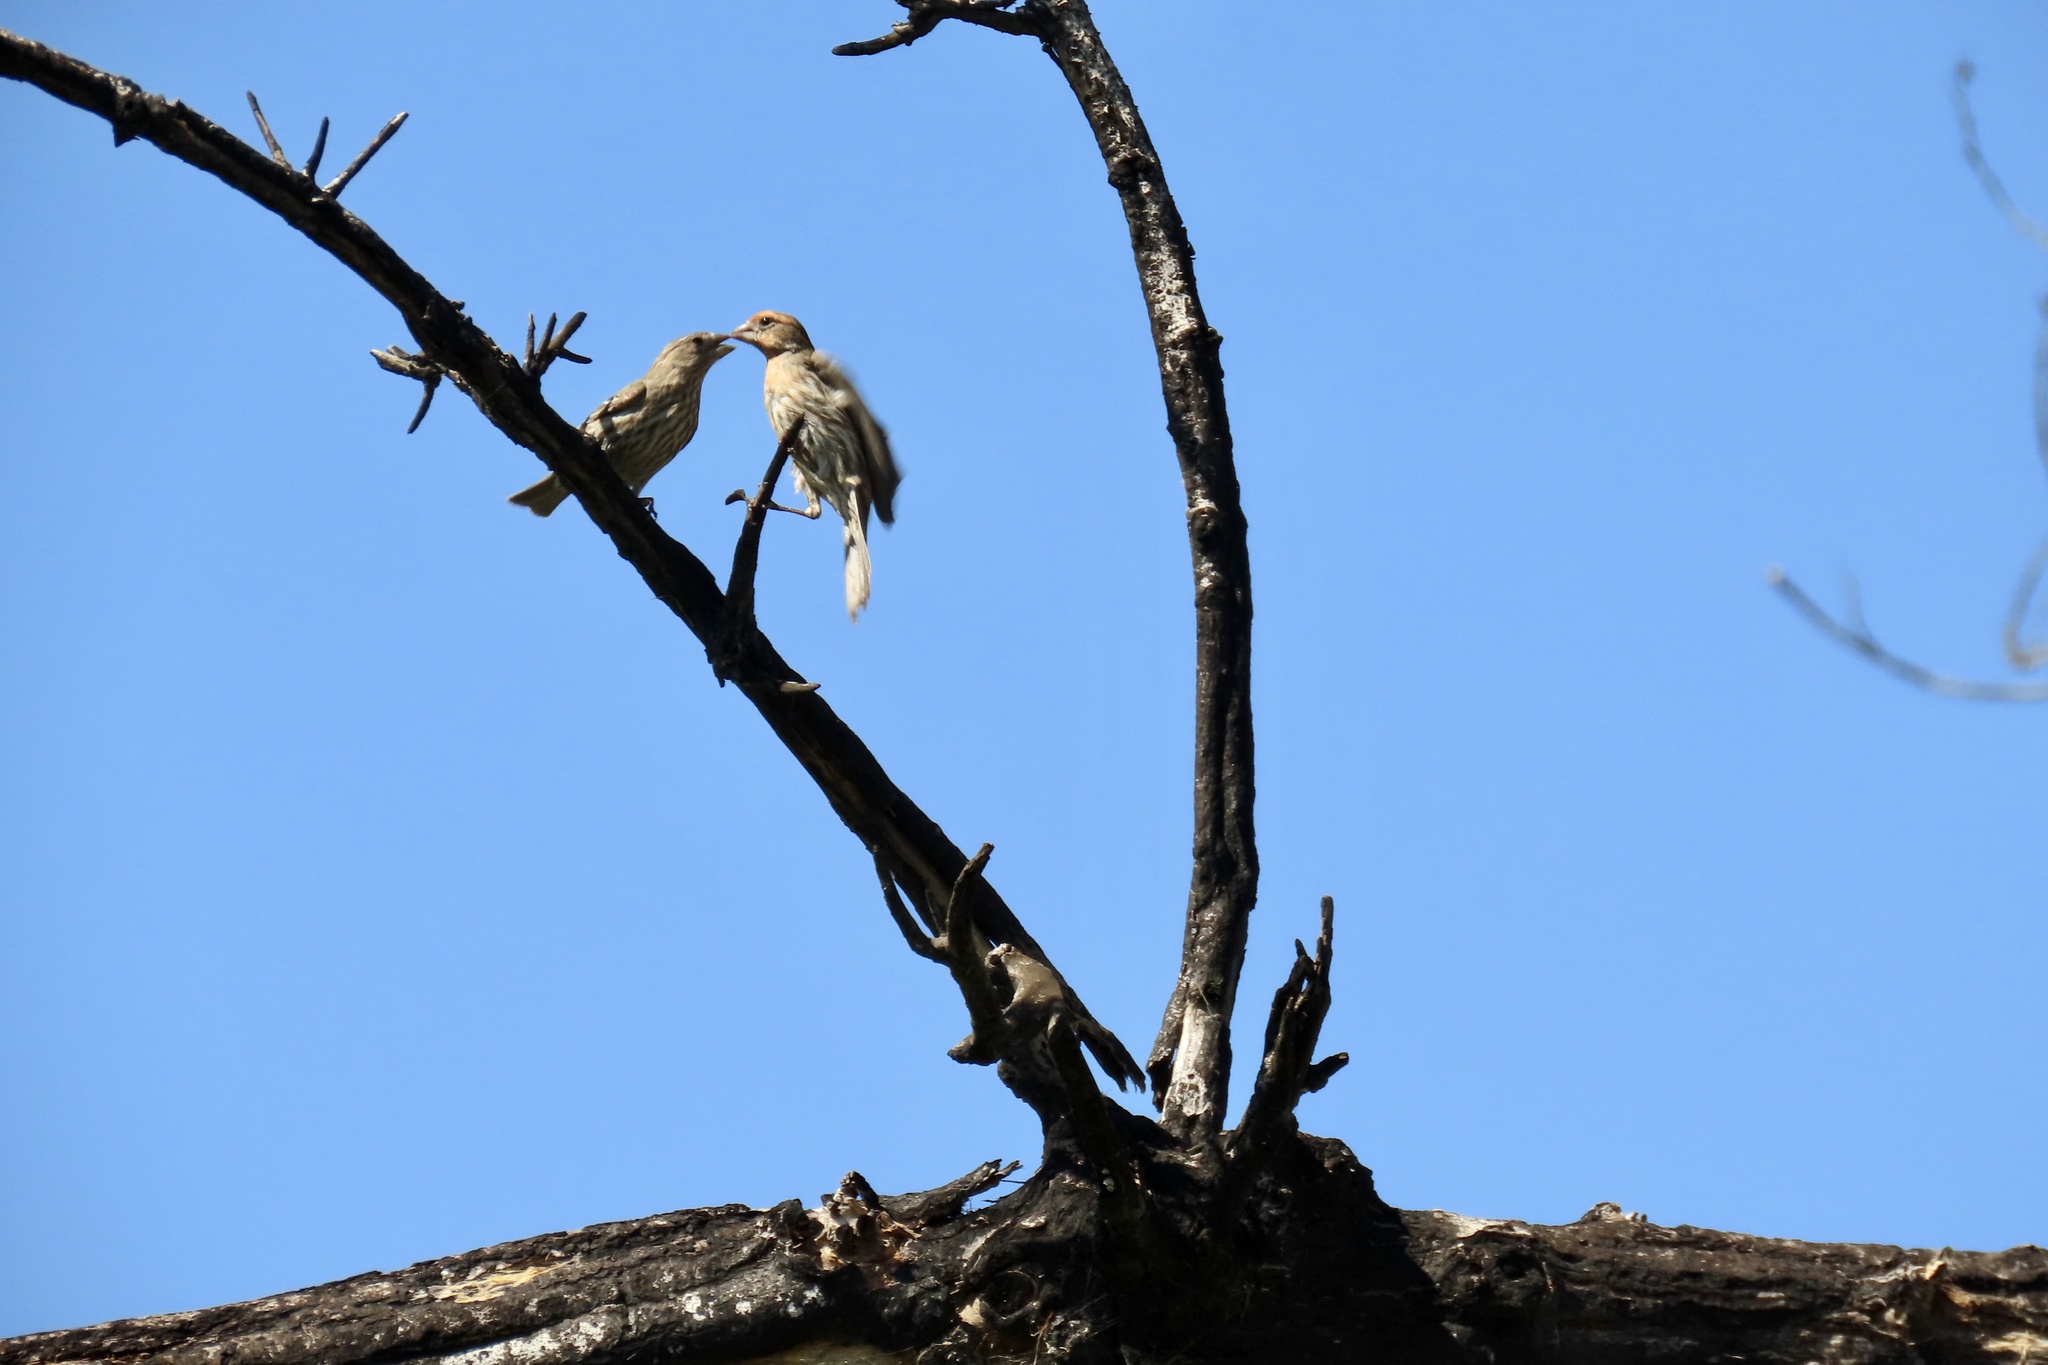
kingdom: Animalia
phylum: Chordata
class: Aves
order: Passeriformes
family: Fringillidae
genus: Haemorhous
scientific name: Haemorhous mexicanus
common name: House finch
